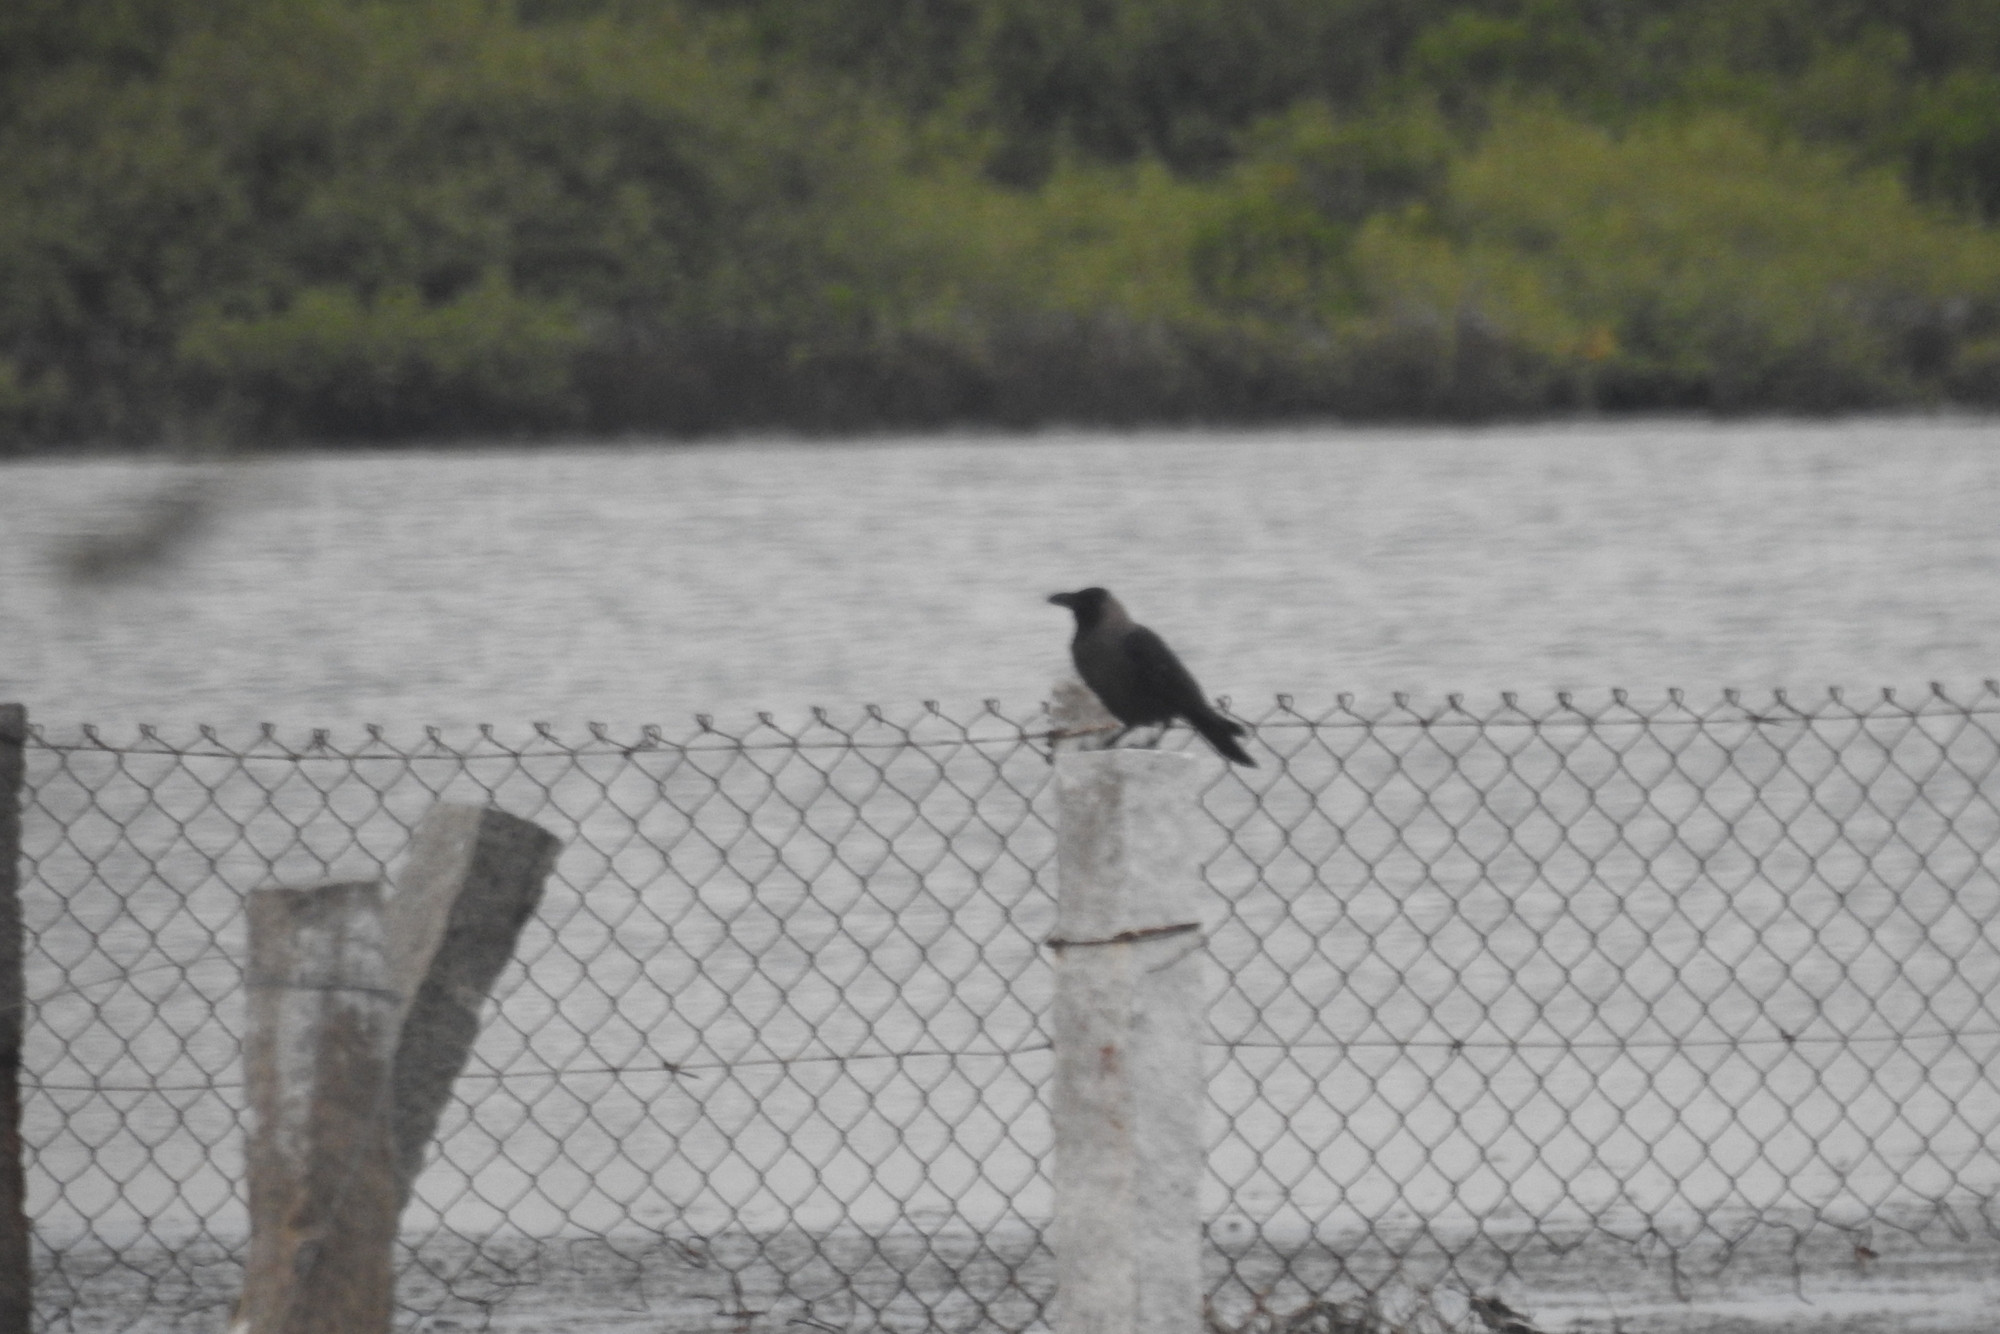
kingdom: Animalia
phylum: Chordata
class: Aves
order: Passeriformes
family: Corvidae
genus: Corvus
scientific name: Corvus splendens
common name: House crow
